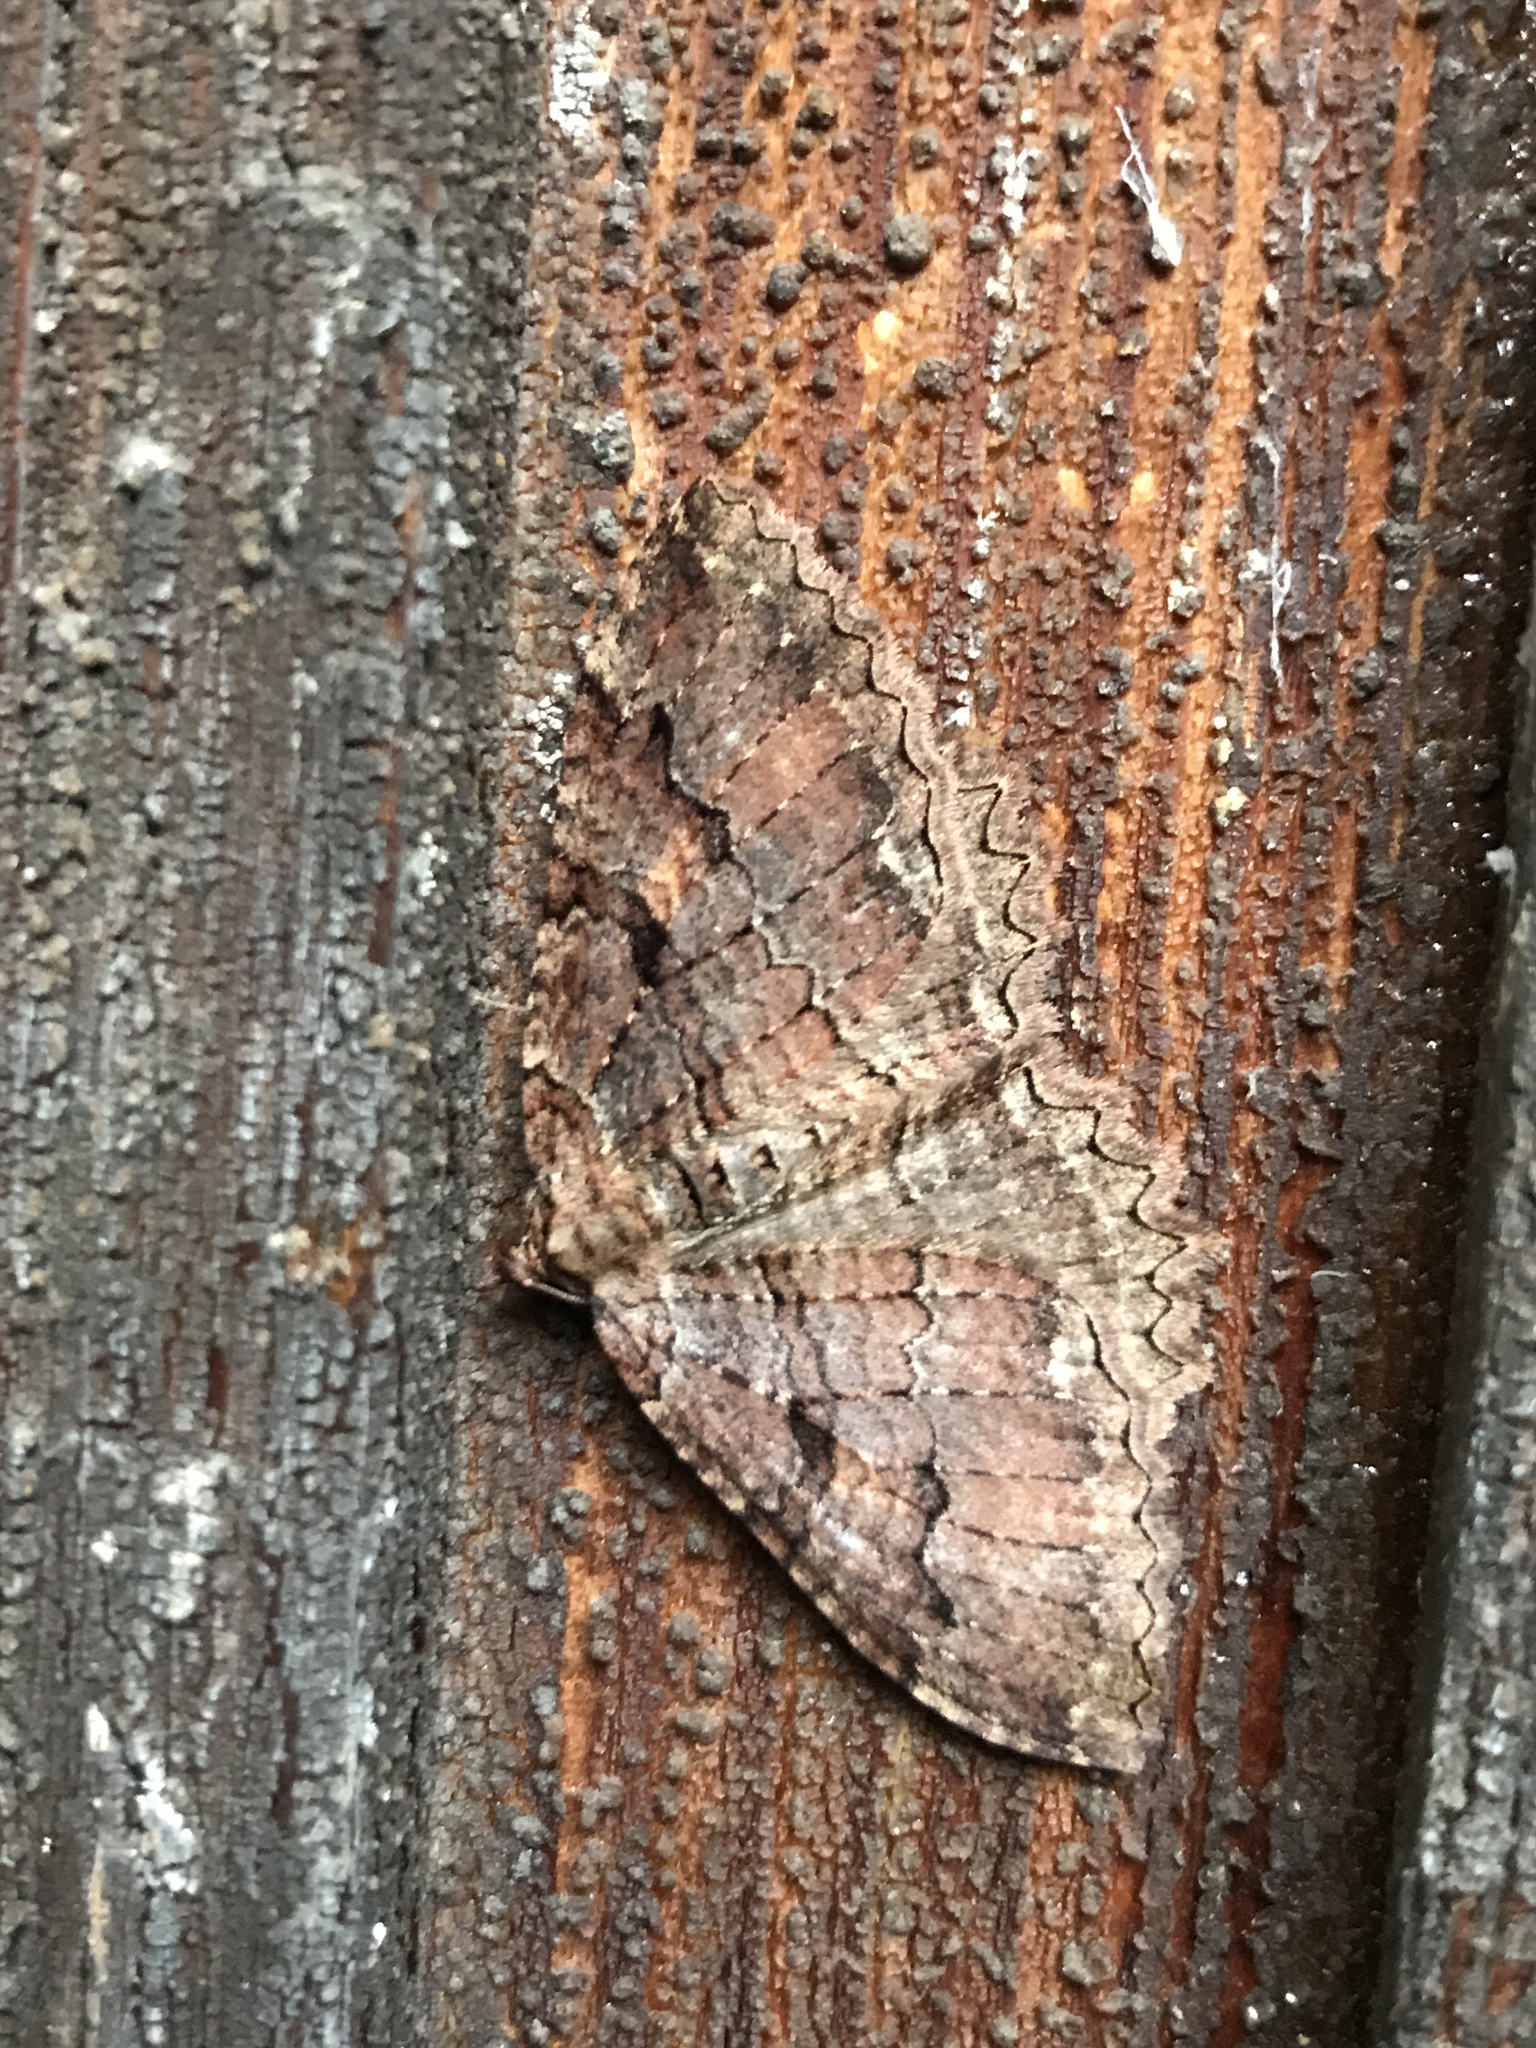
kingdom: Animalia
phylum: Arthropoda
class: Insecta
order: Lepidoptera
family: Geometridae
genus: Triphosa
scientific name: Triphosa haesitata
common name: Tissue moth
